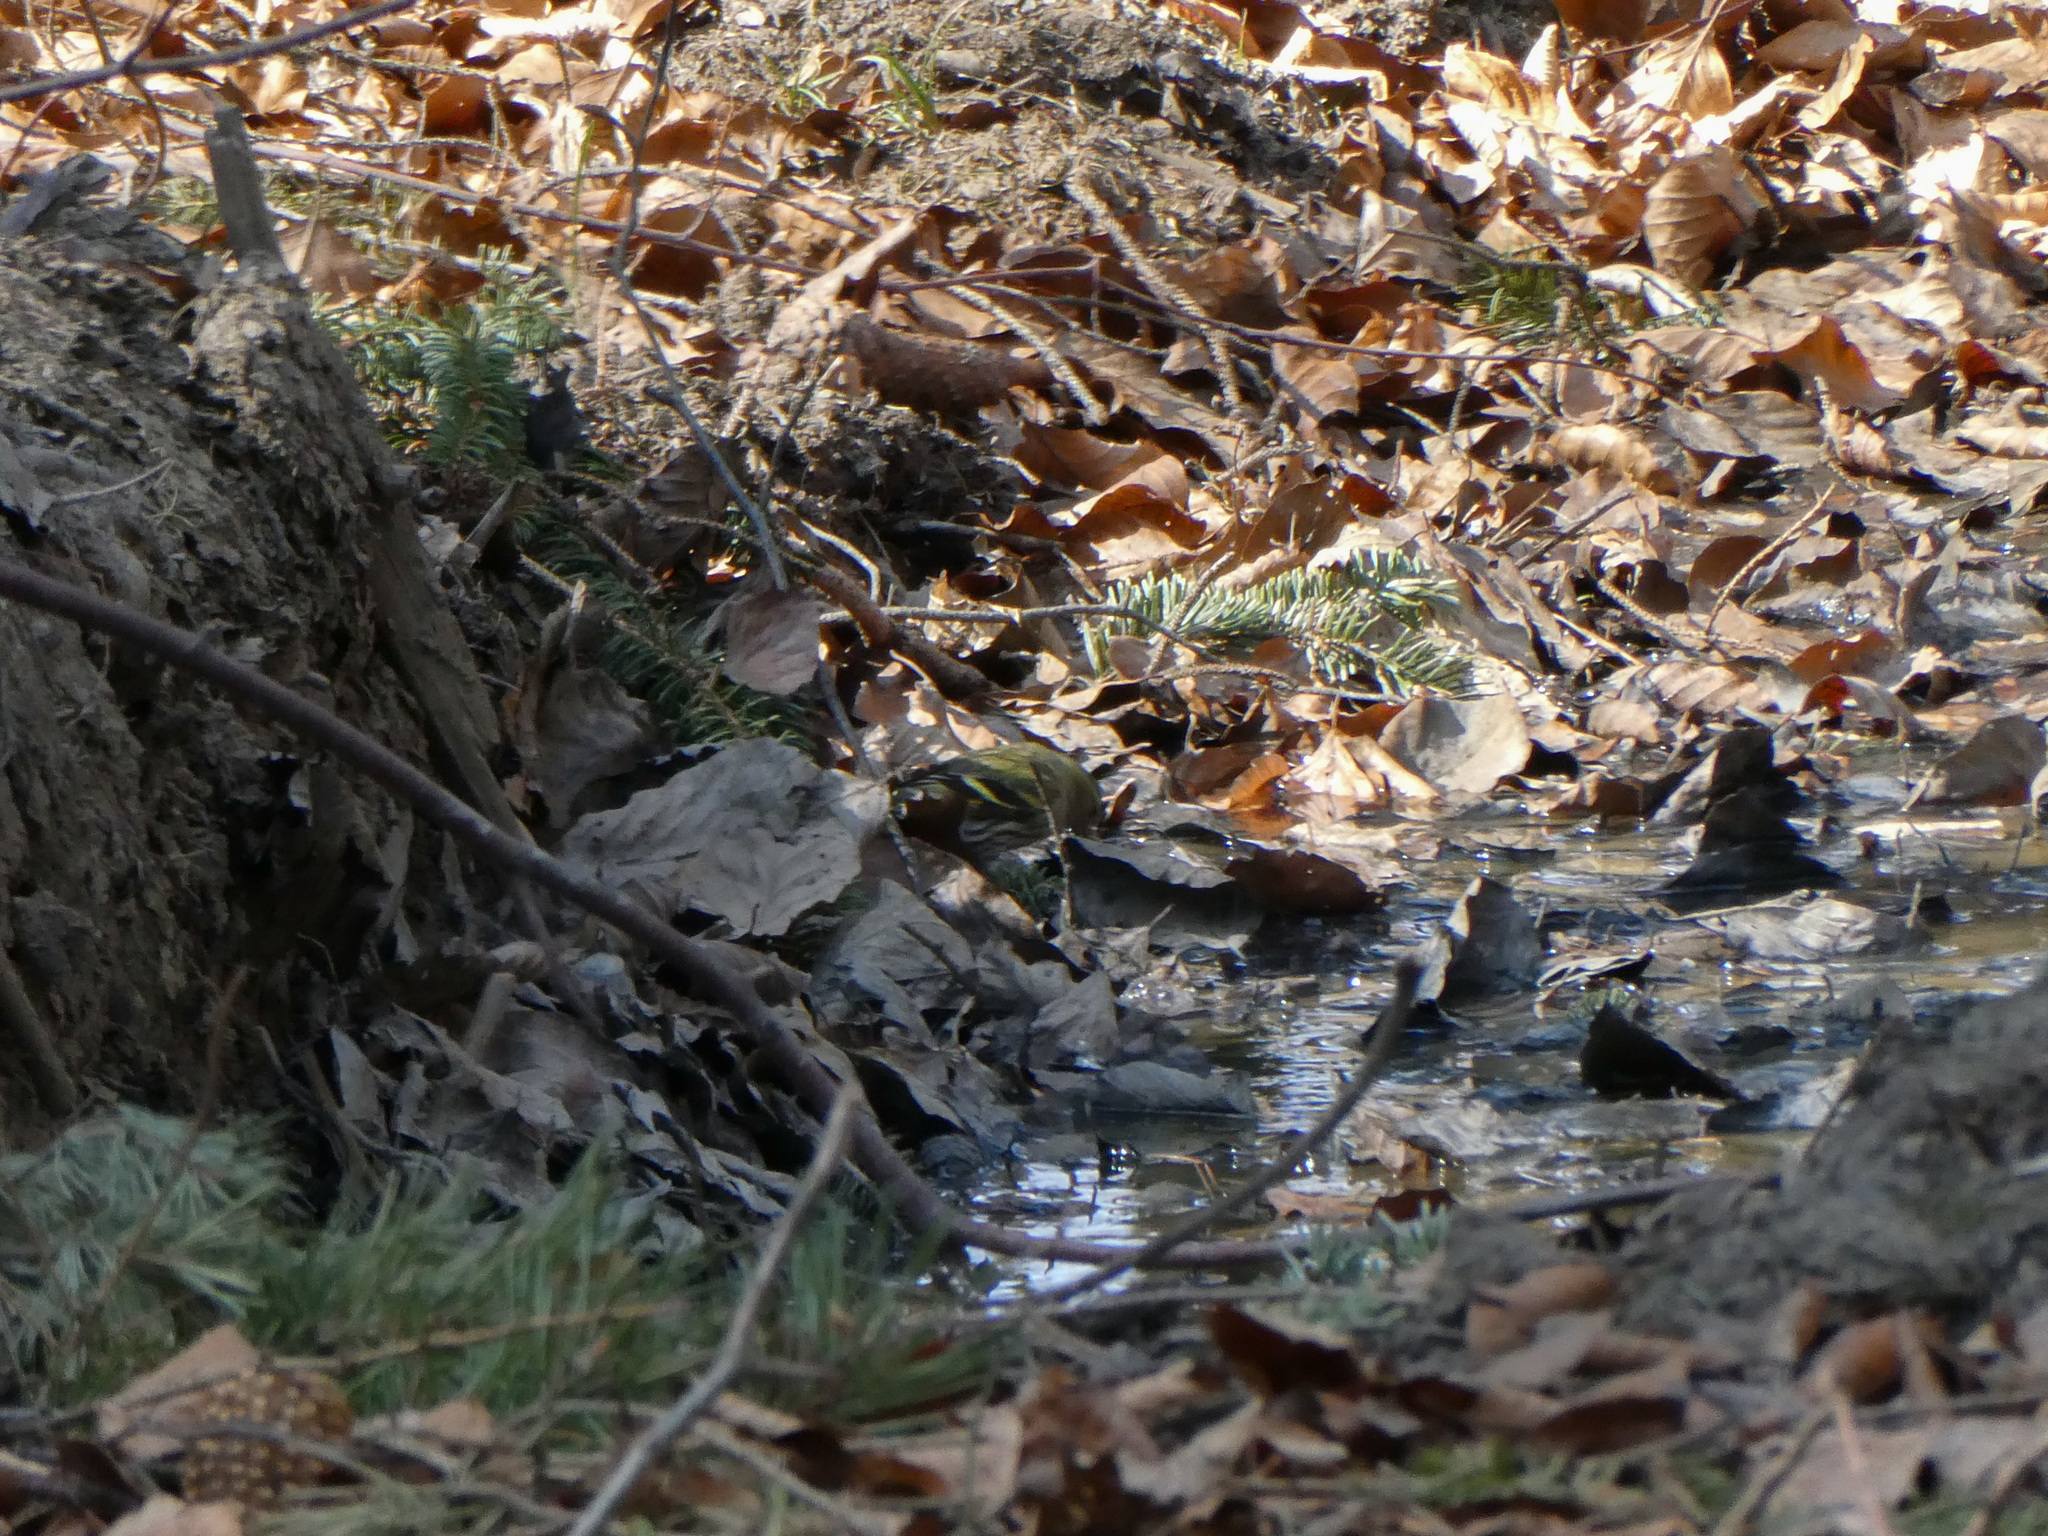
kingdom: Animalia
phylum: Chordata
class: Aves
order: Passeriformes
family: Fringillidae
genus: Spinus
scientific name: Spinus spinus
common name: Eurasian siskin
